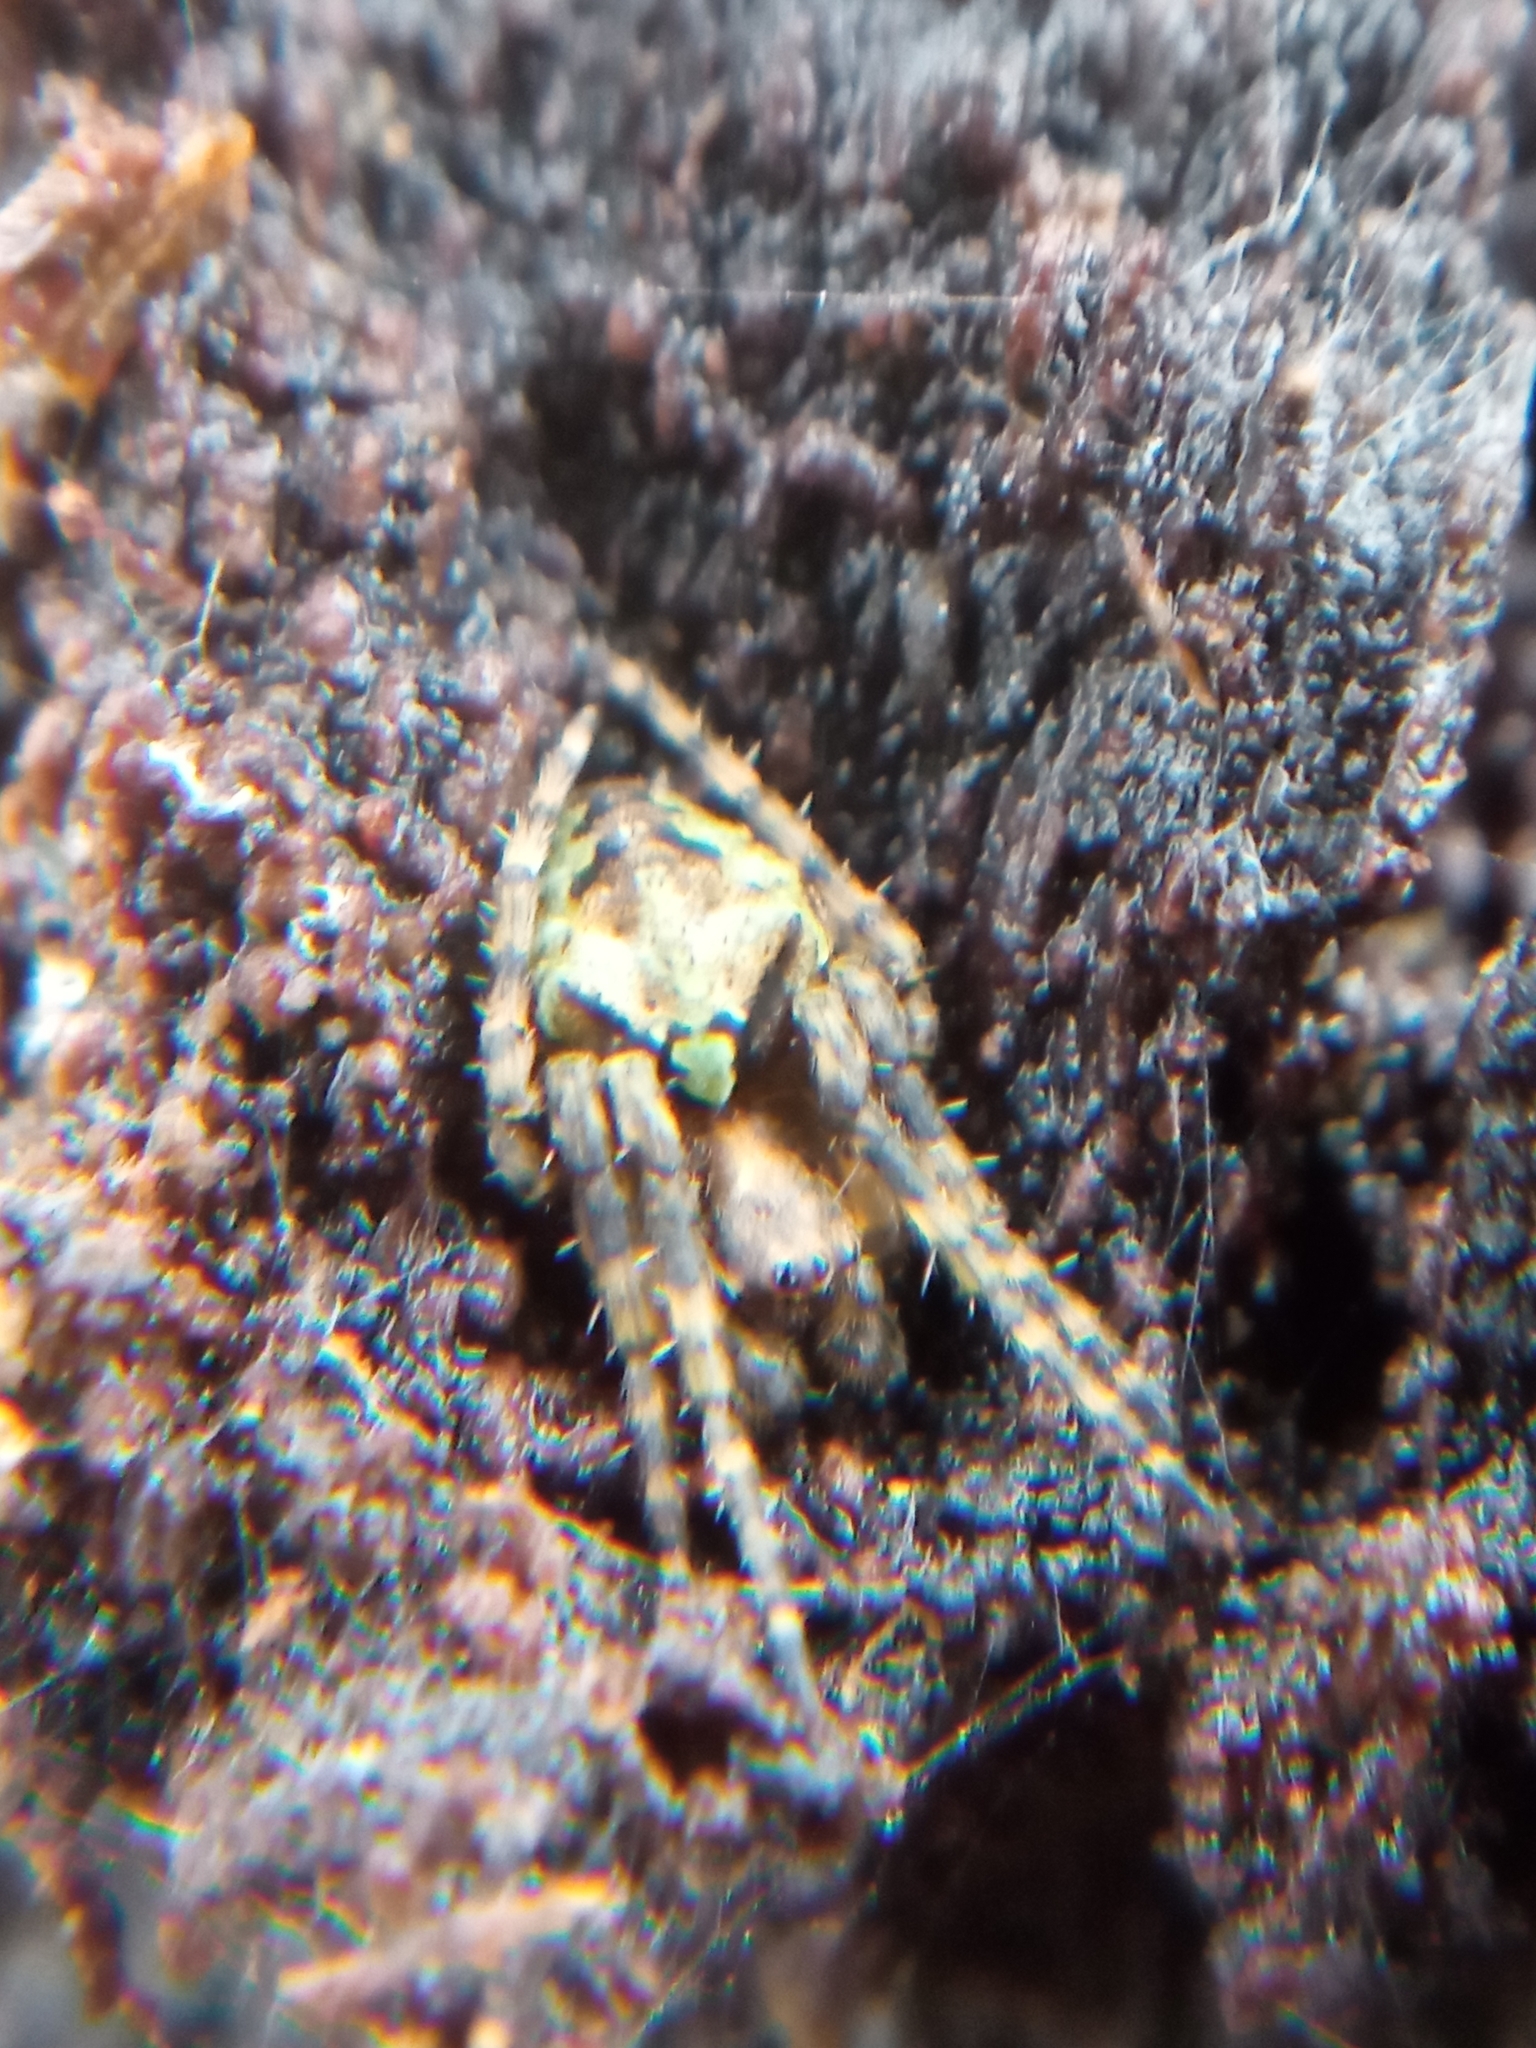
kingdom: Animalia
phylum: Arthropoda
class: Arachnida
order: Araneae
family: Araneidae
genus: Gibbaranea
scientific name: Gibbaranea gibbosa
